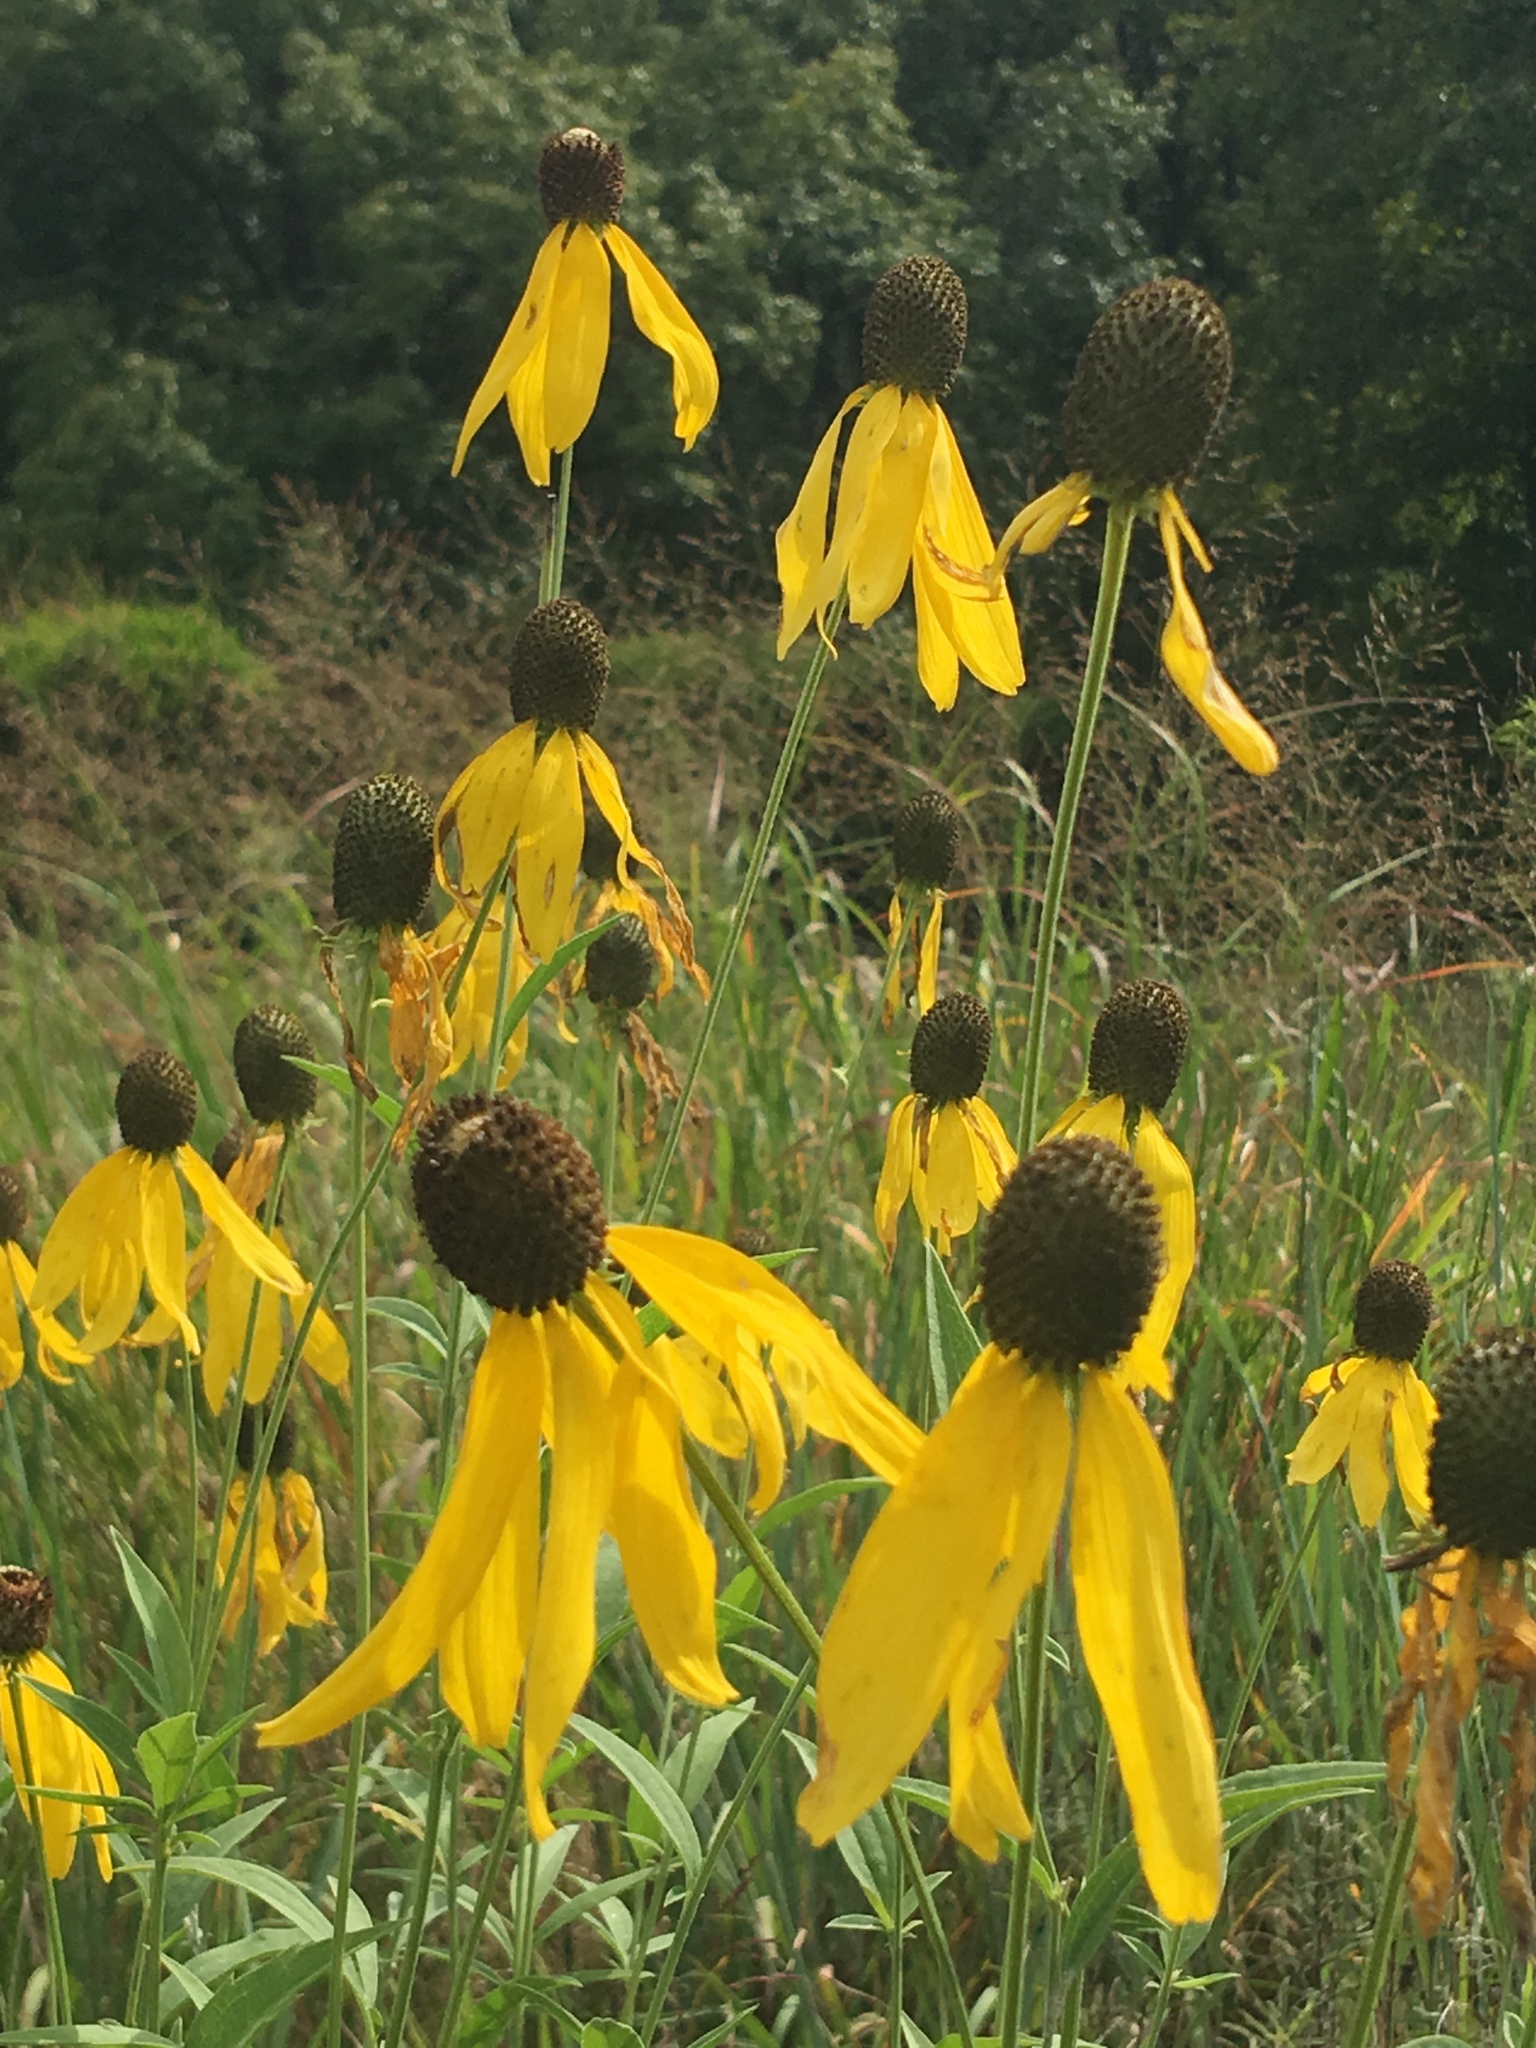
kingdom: Plantae
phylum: Tracheophyta
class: Magnoliopsida
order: Asterales
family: Asteraceae
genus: Ratibida
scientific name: Ratibida pinnata
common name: Drooping prairie-coneflower
